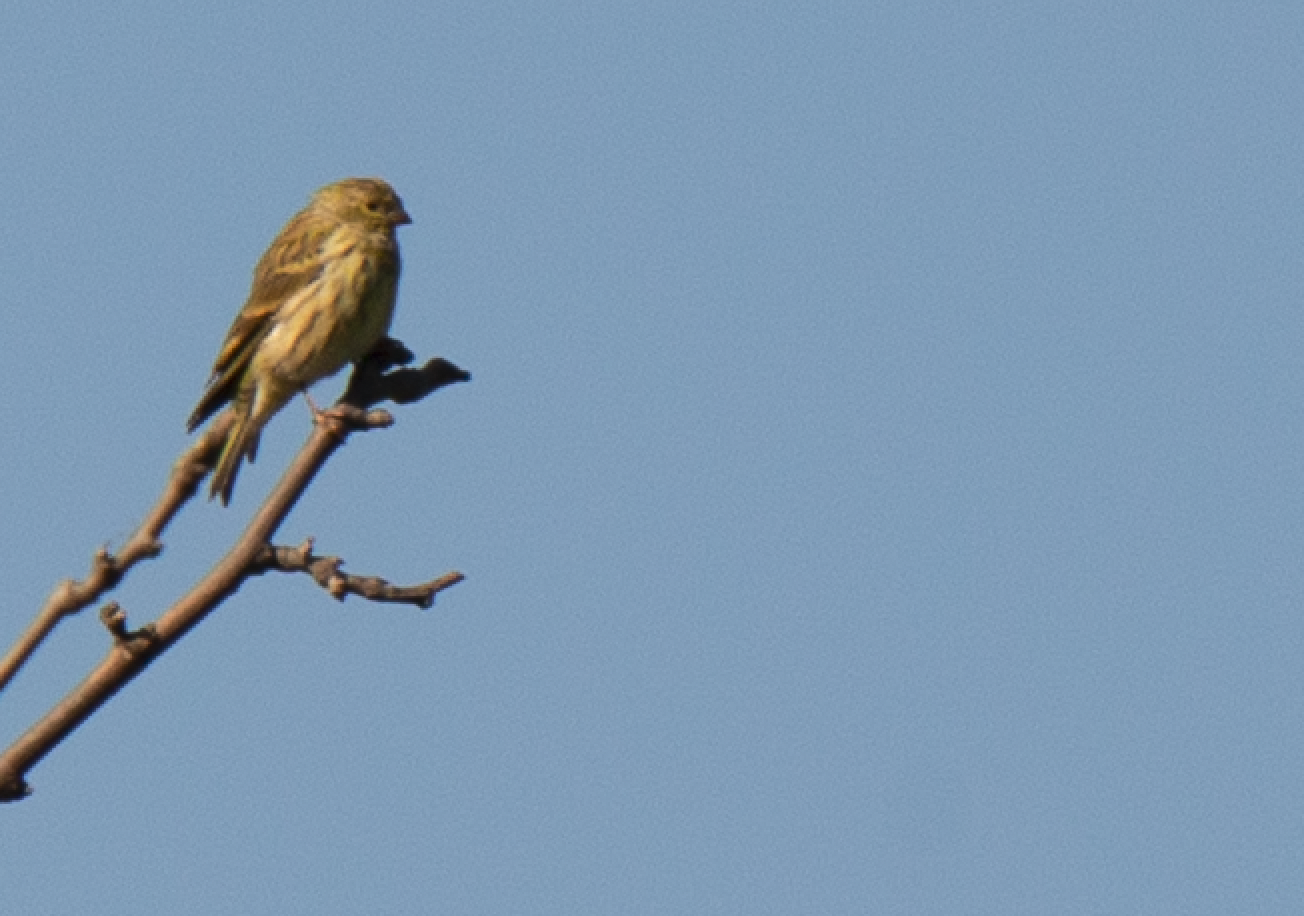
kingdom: Animalia
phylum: Chordata
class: Aves
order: Passeriformes
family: Fringillidae
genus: Serinus
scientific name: Serinus serinus
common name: European serin
